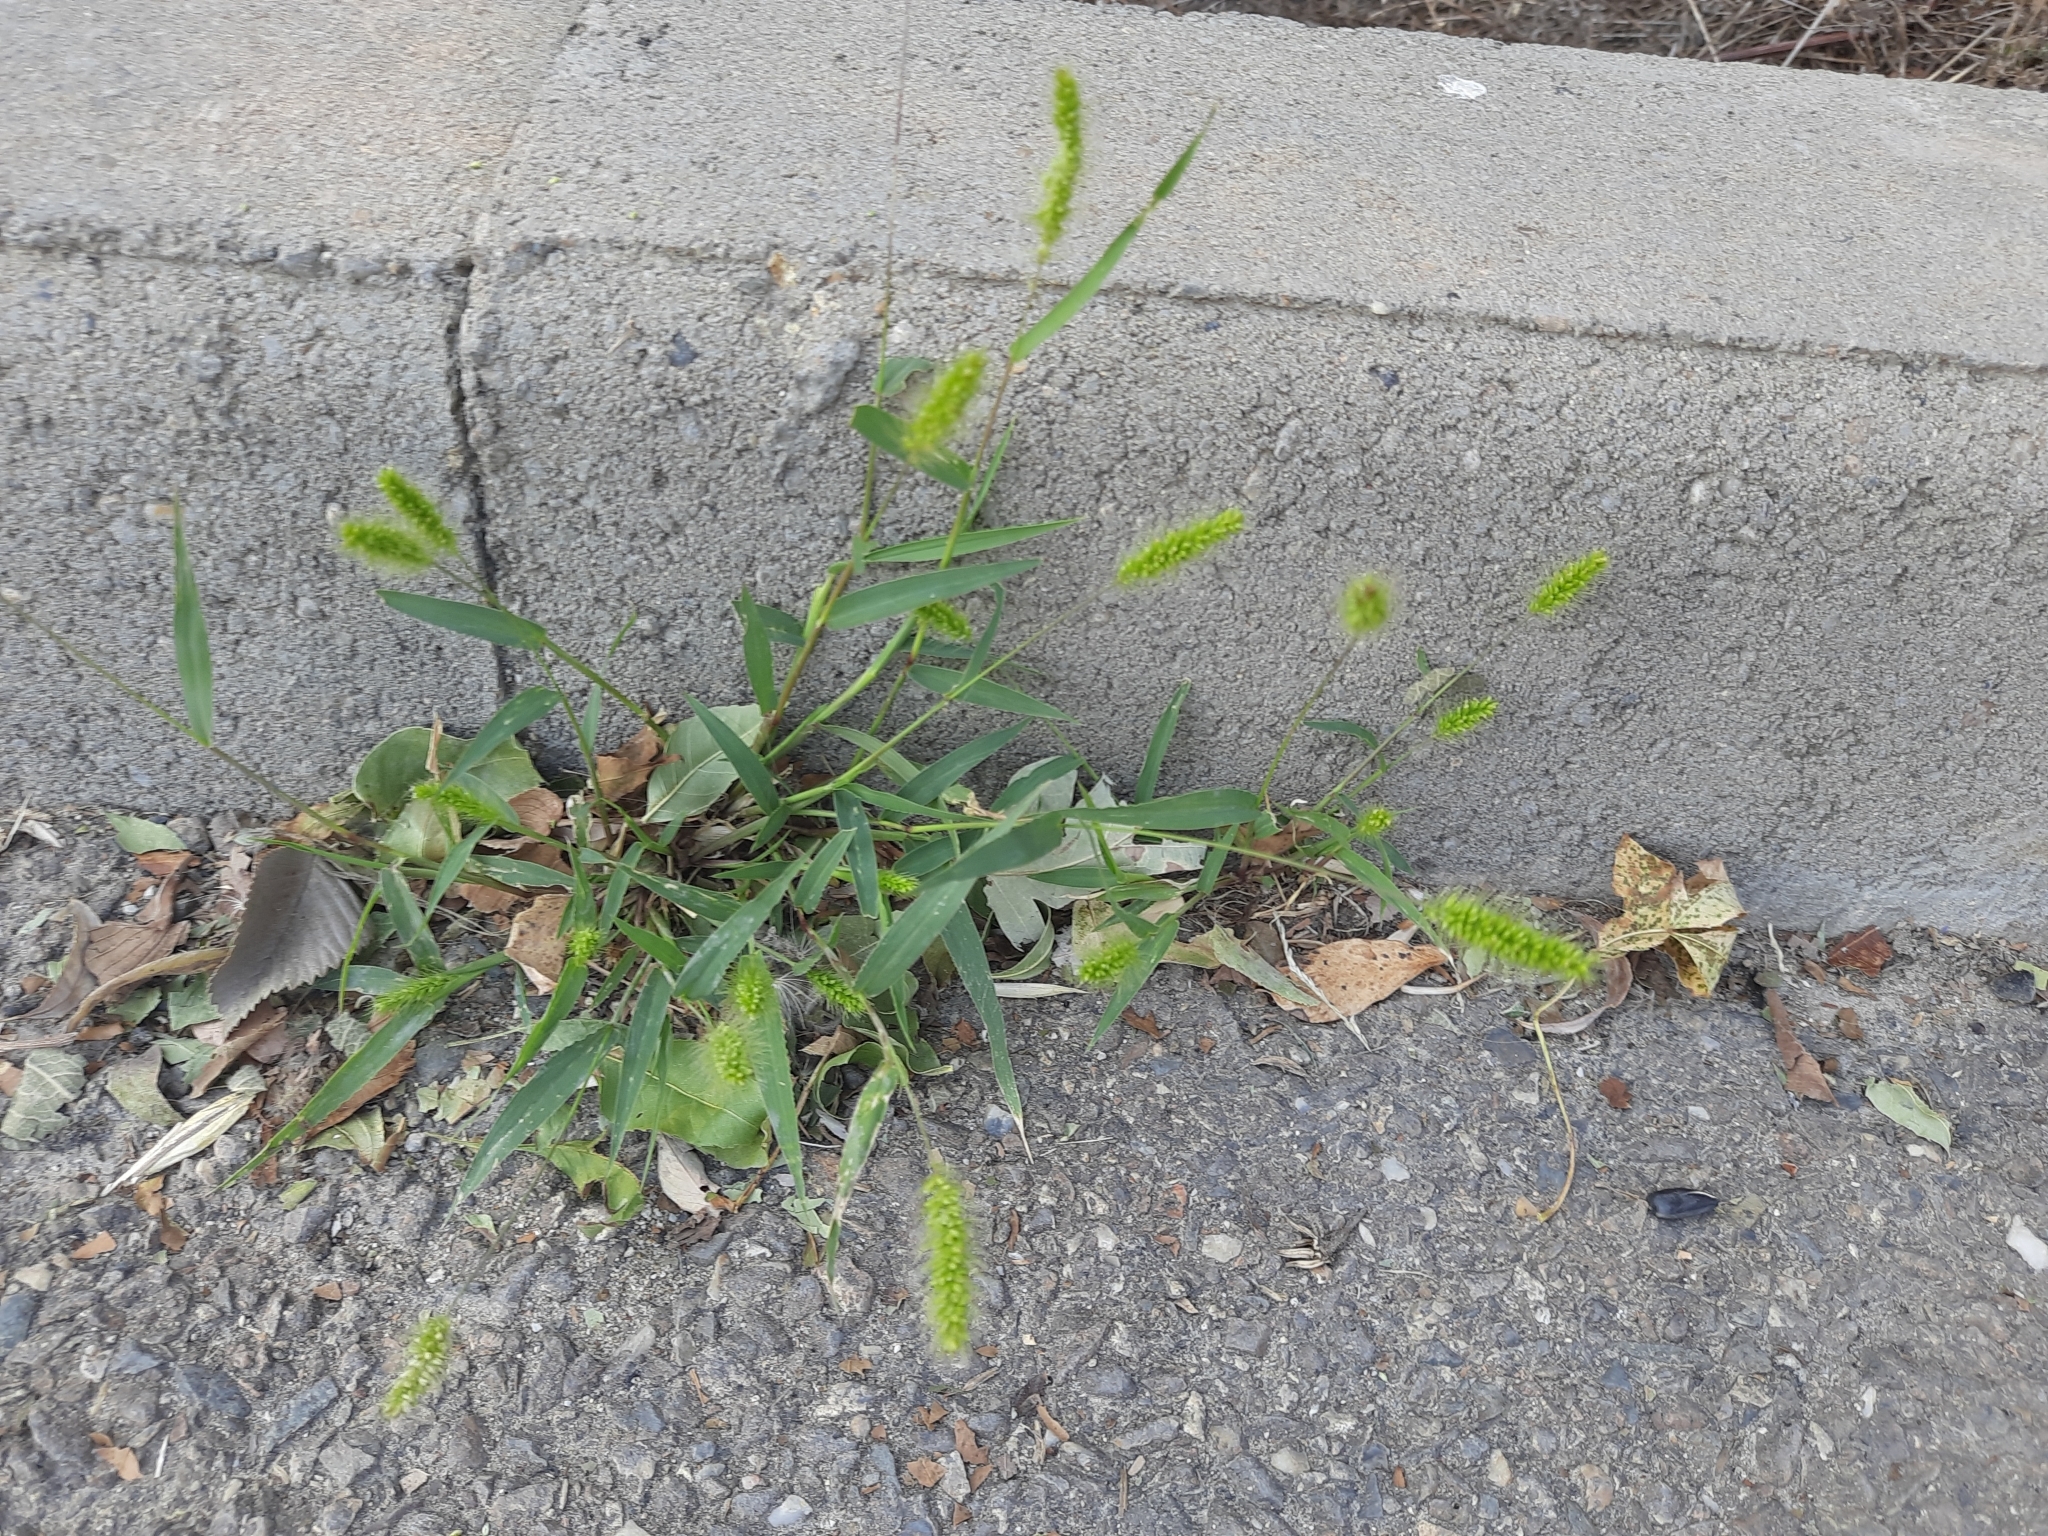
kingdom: Plantae
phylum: Tracheophyta
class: Liliopsida
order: Poales
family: Poaceae
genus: Setaria
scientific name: Setaria viridis
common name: Green bristlegrass
